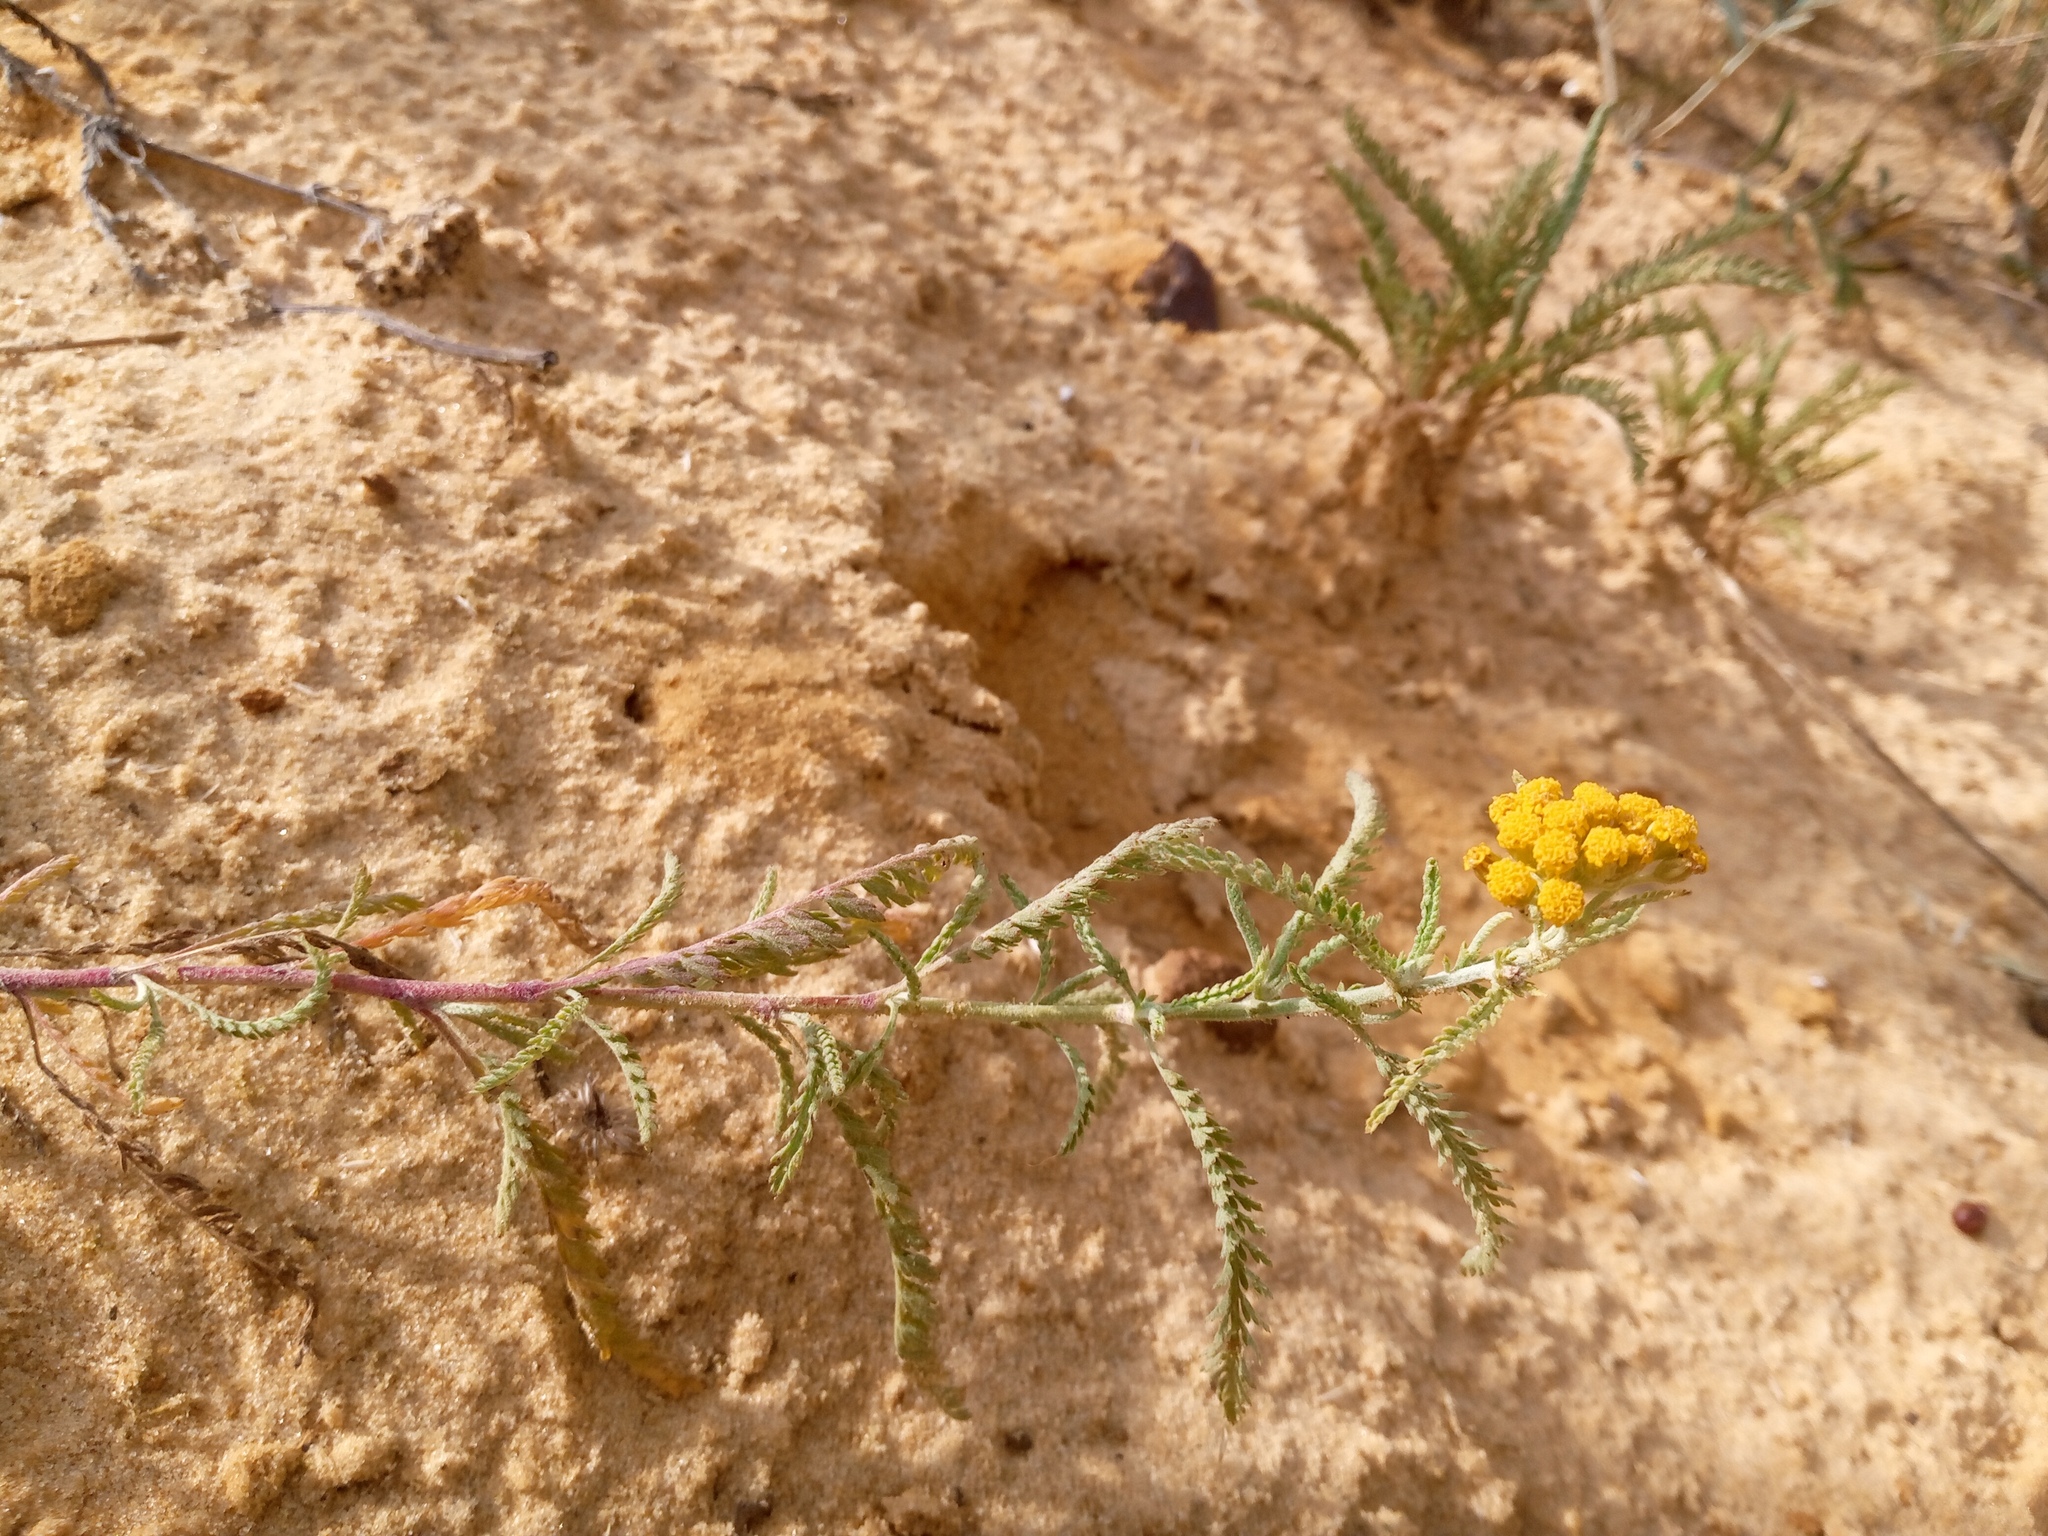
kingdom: Plantae
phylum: Tracheophyta
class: Magnoliopsida
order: Asterales
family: Asteraceae
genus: Achillea
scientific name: Achillea micrantha
